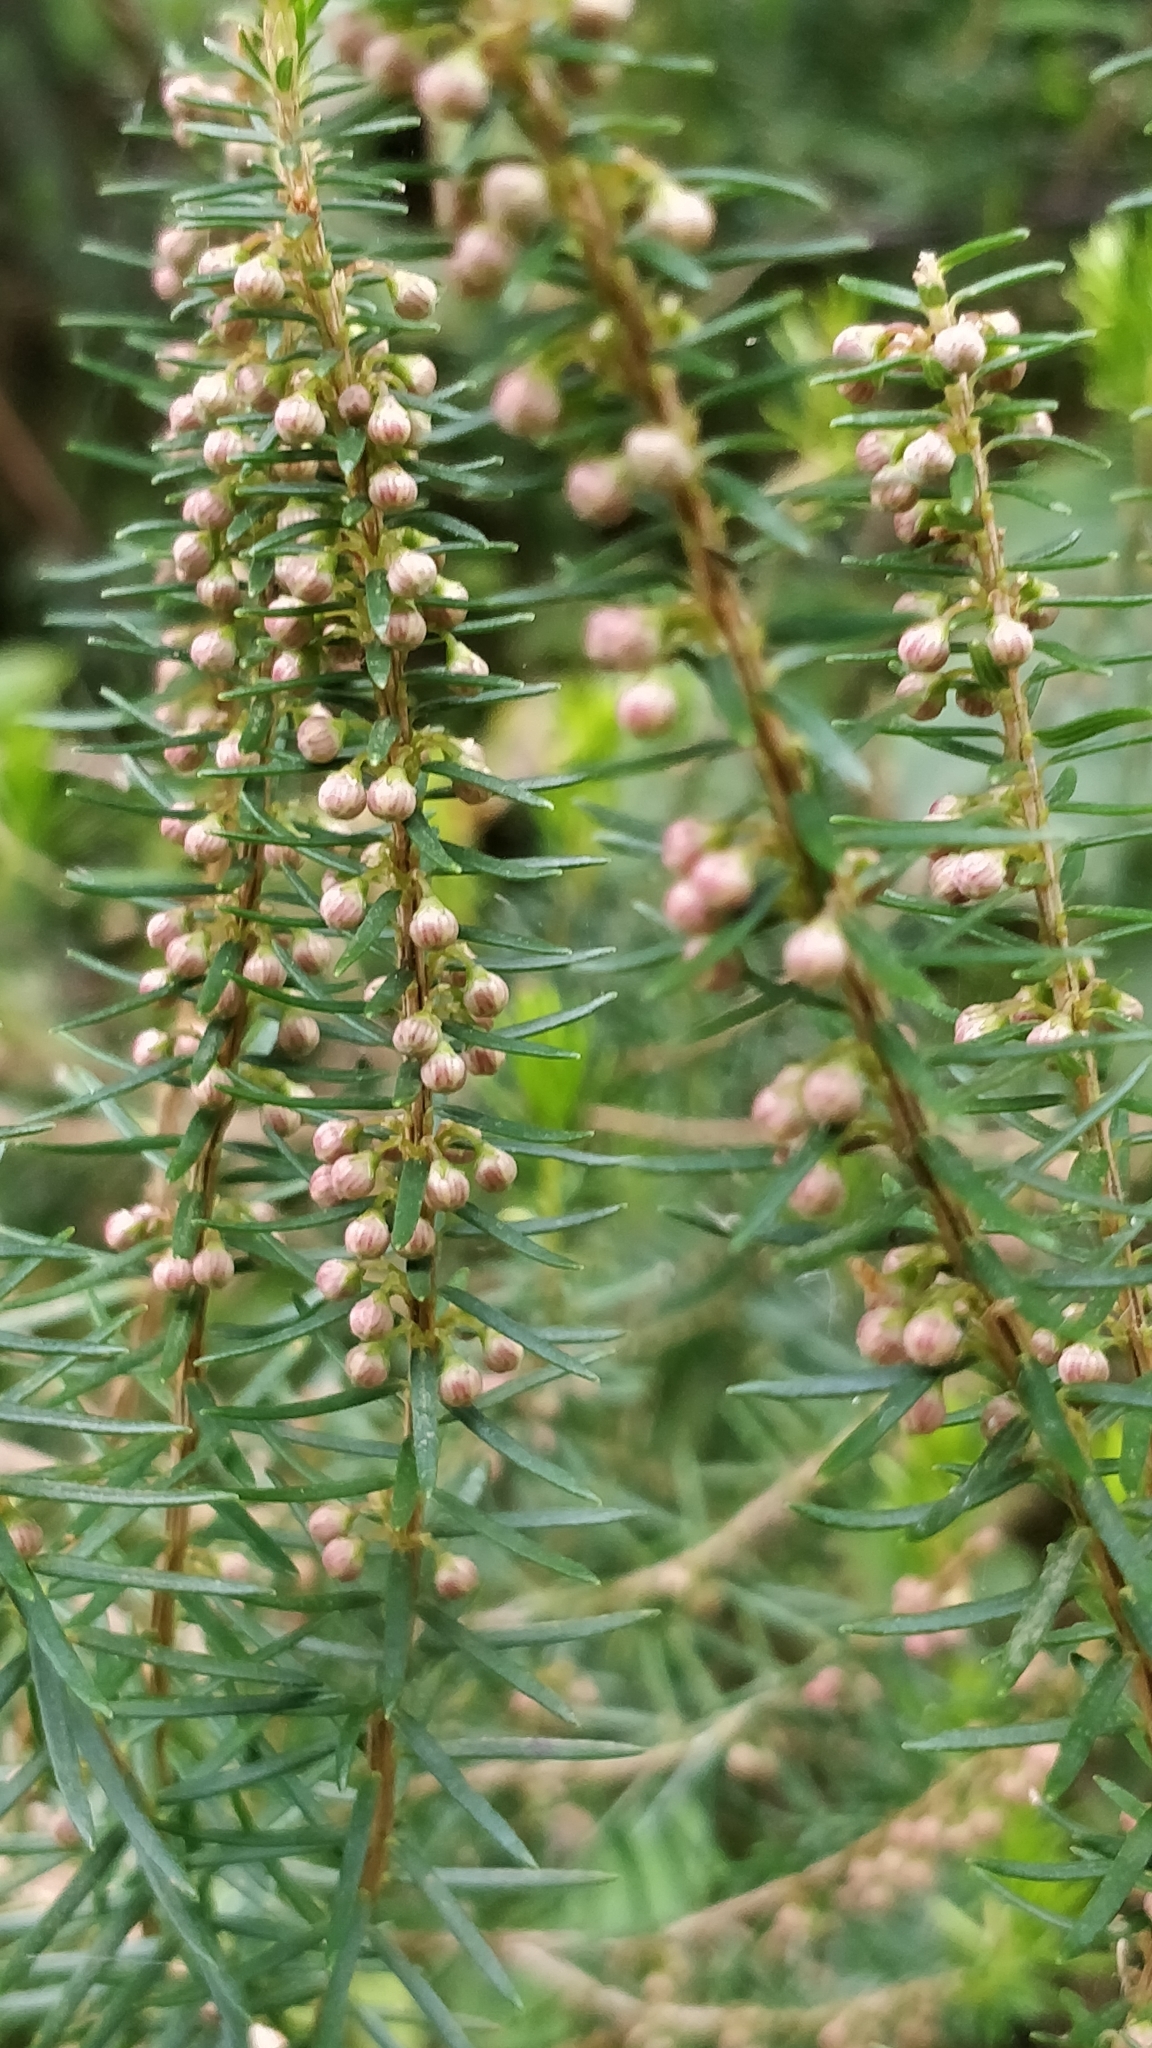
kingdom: Plantae
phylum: Tracheophyta
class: Magnoliopsida
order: Ericales
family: Ericaceae
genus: Erica
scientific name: Erica platycodon
